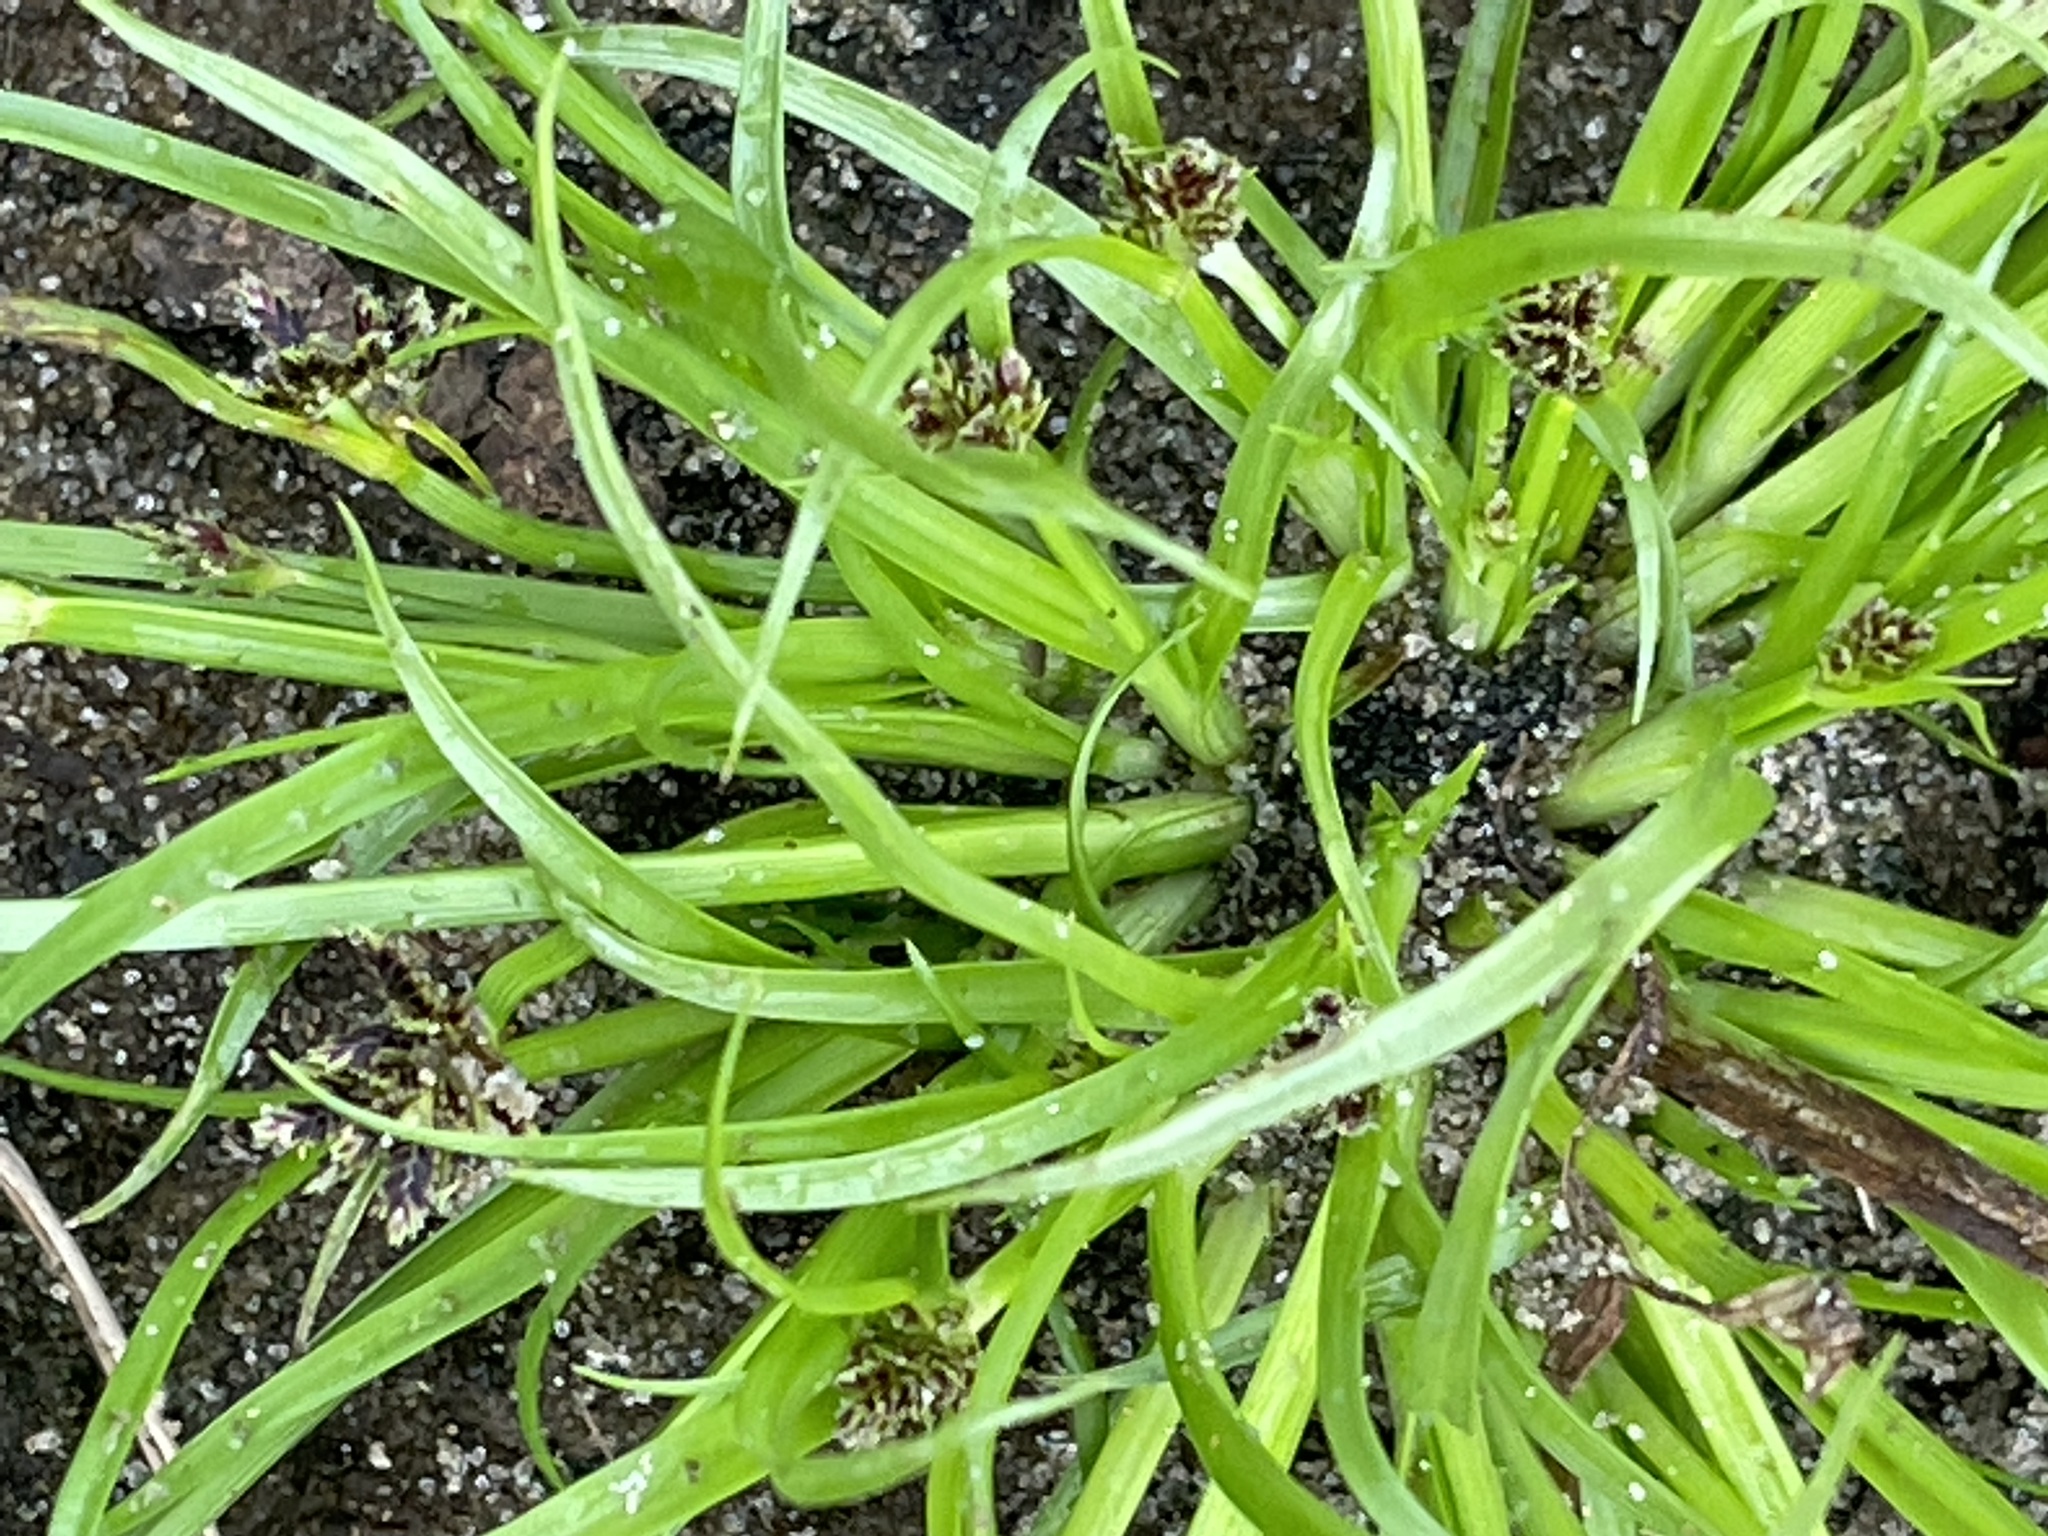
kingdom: Plantae
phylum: Tracheophyta
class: Liliopsida
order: Poales
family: Cyperaceae
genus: Cyperus
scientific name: Cyperus fuscus
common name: Brown galingale
